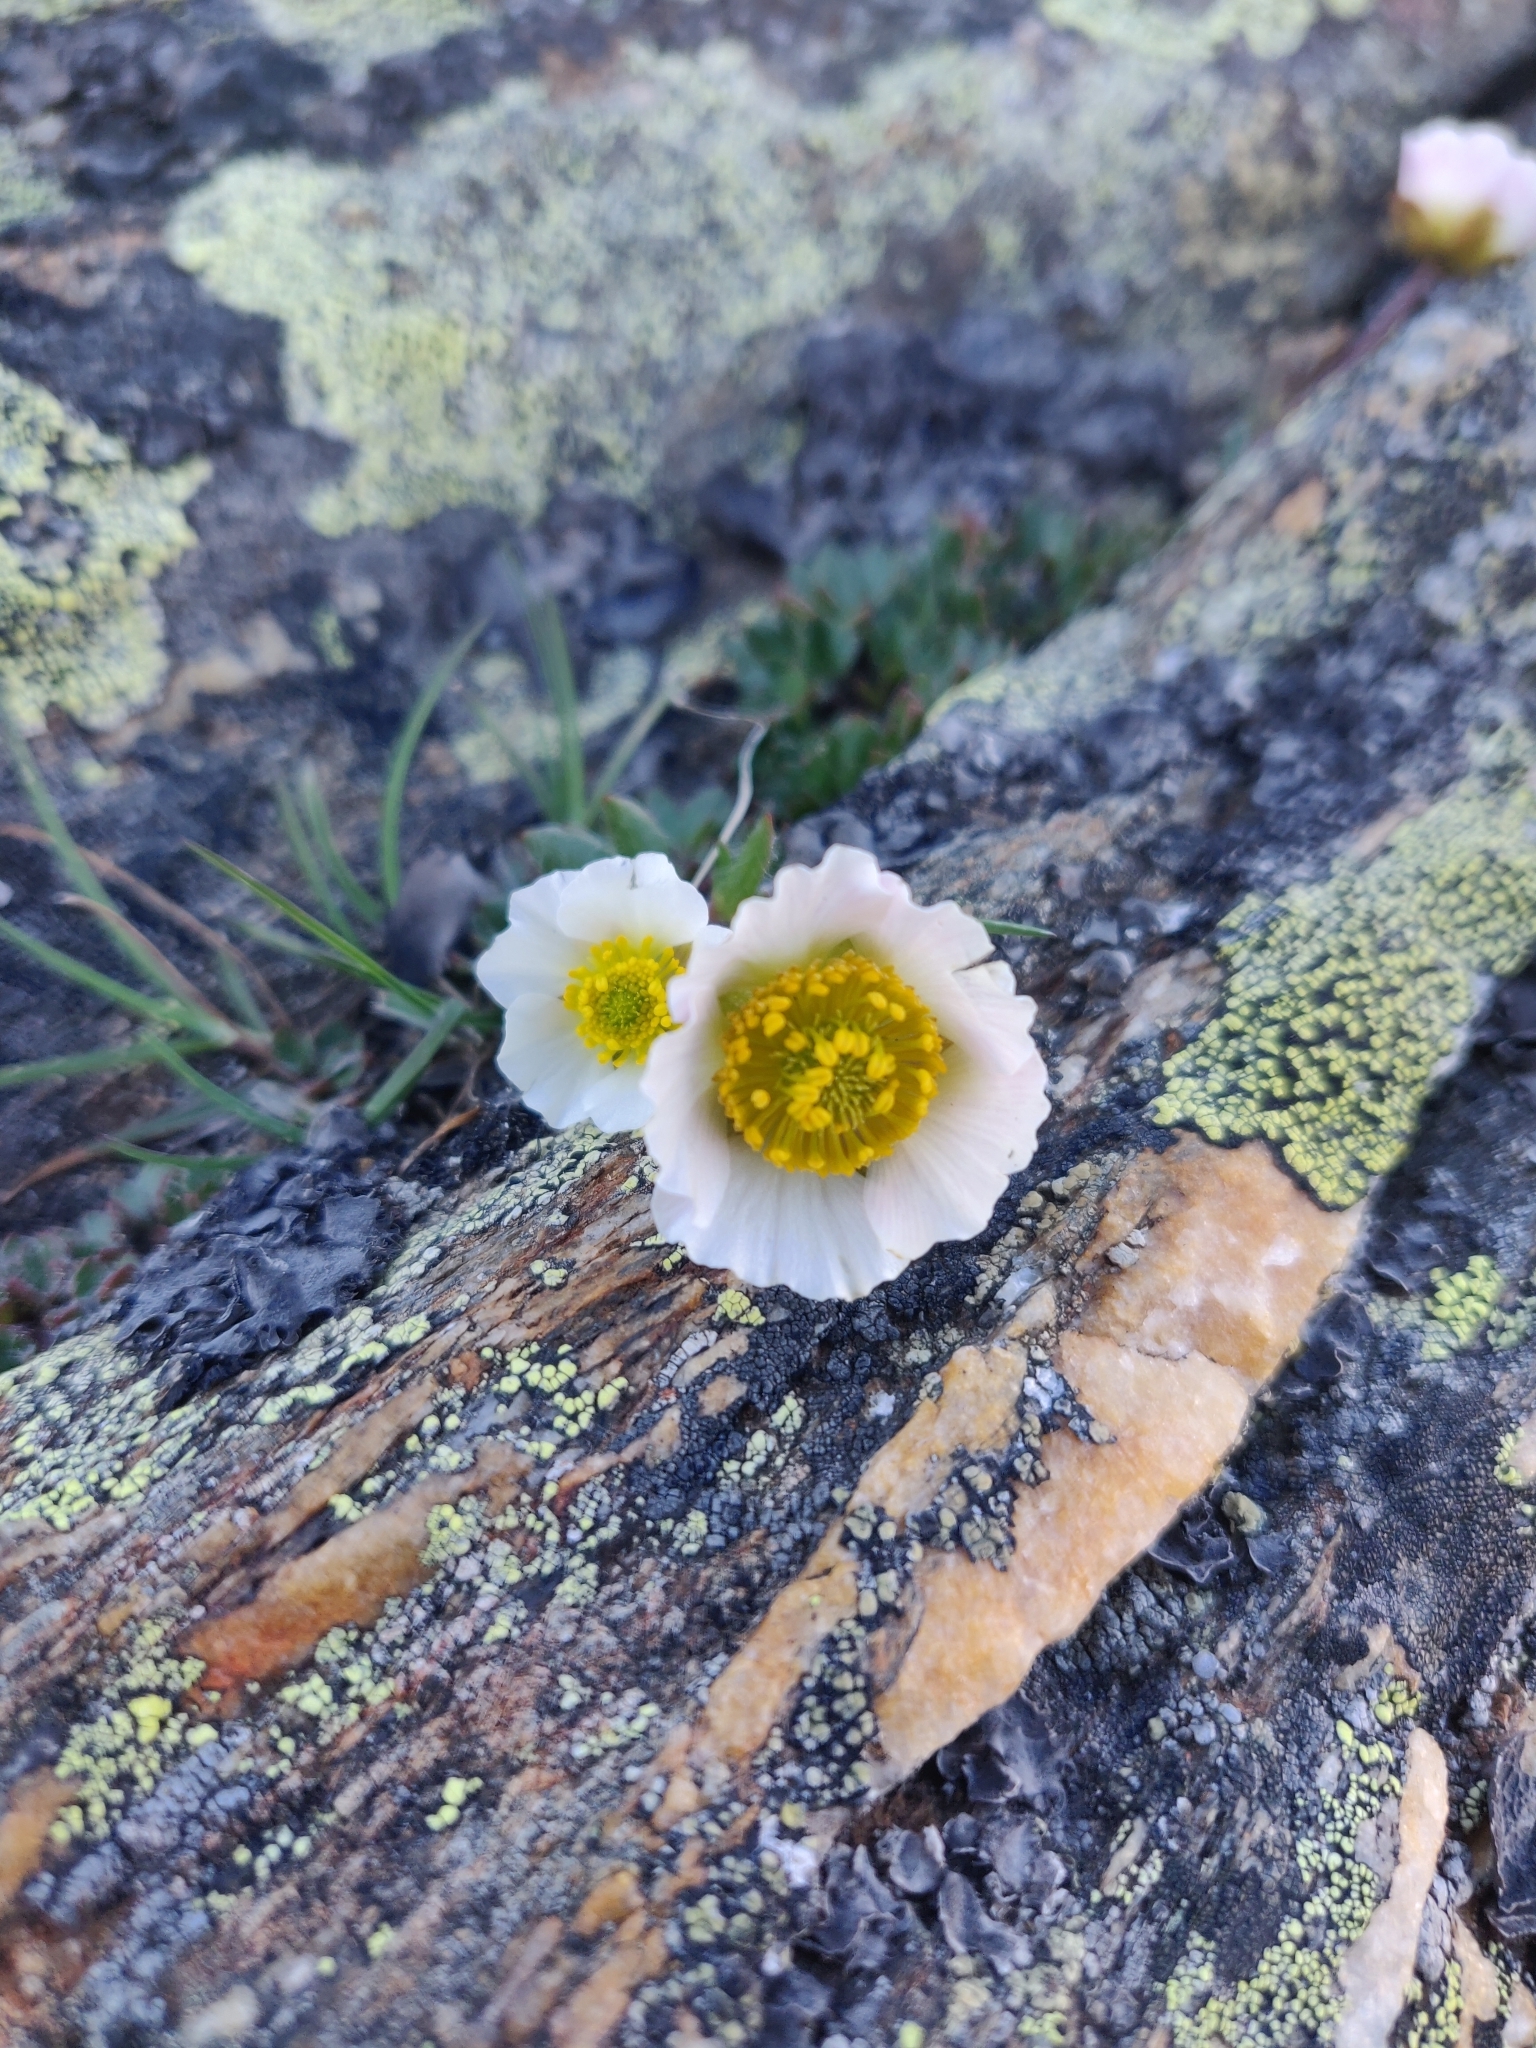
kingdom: Plantae
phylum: Tracheophyta
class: Magnoliopsida
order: Ranunculales
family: Ranunculaceae
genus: Ranunculus
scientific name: Ranunculus glacialis
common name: Glacier buttercup
